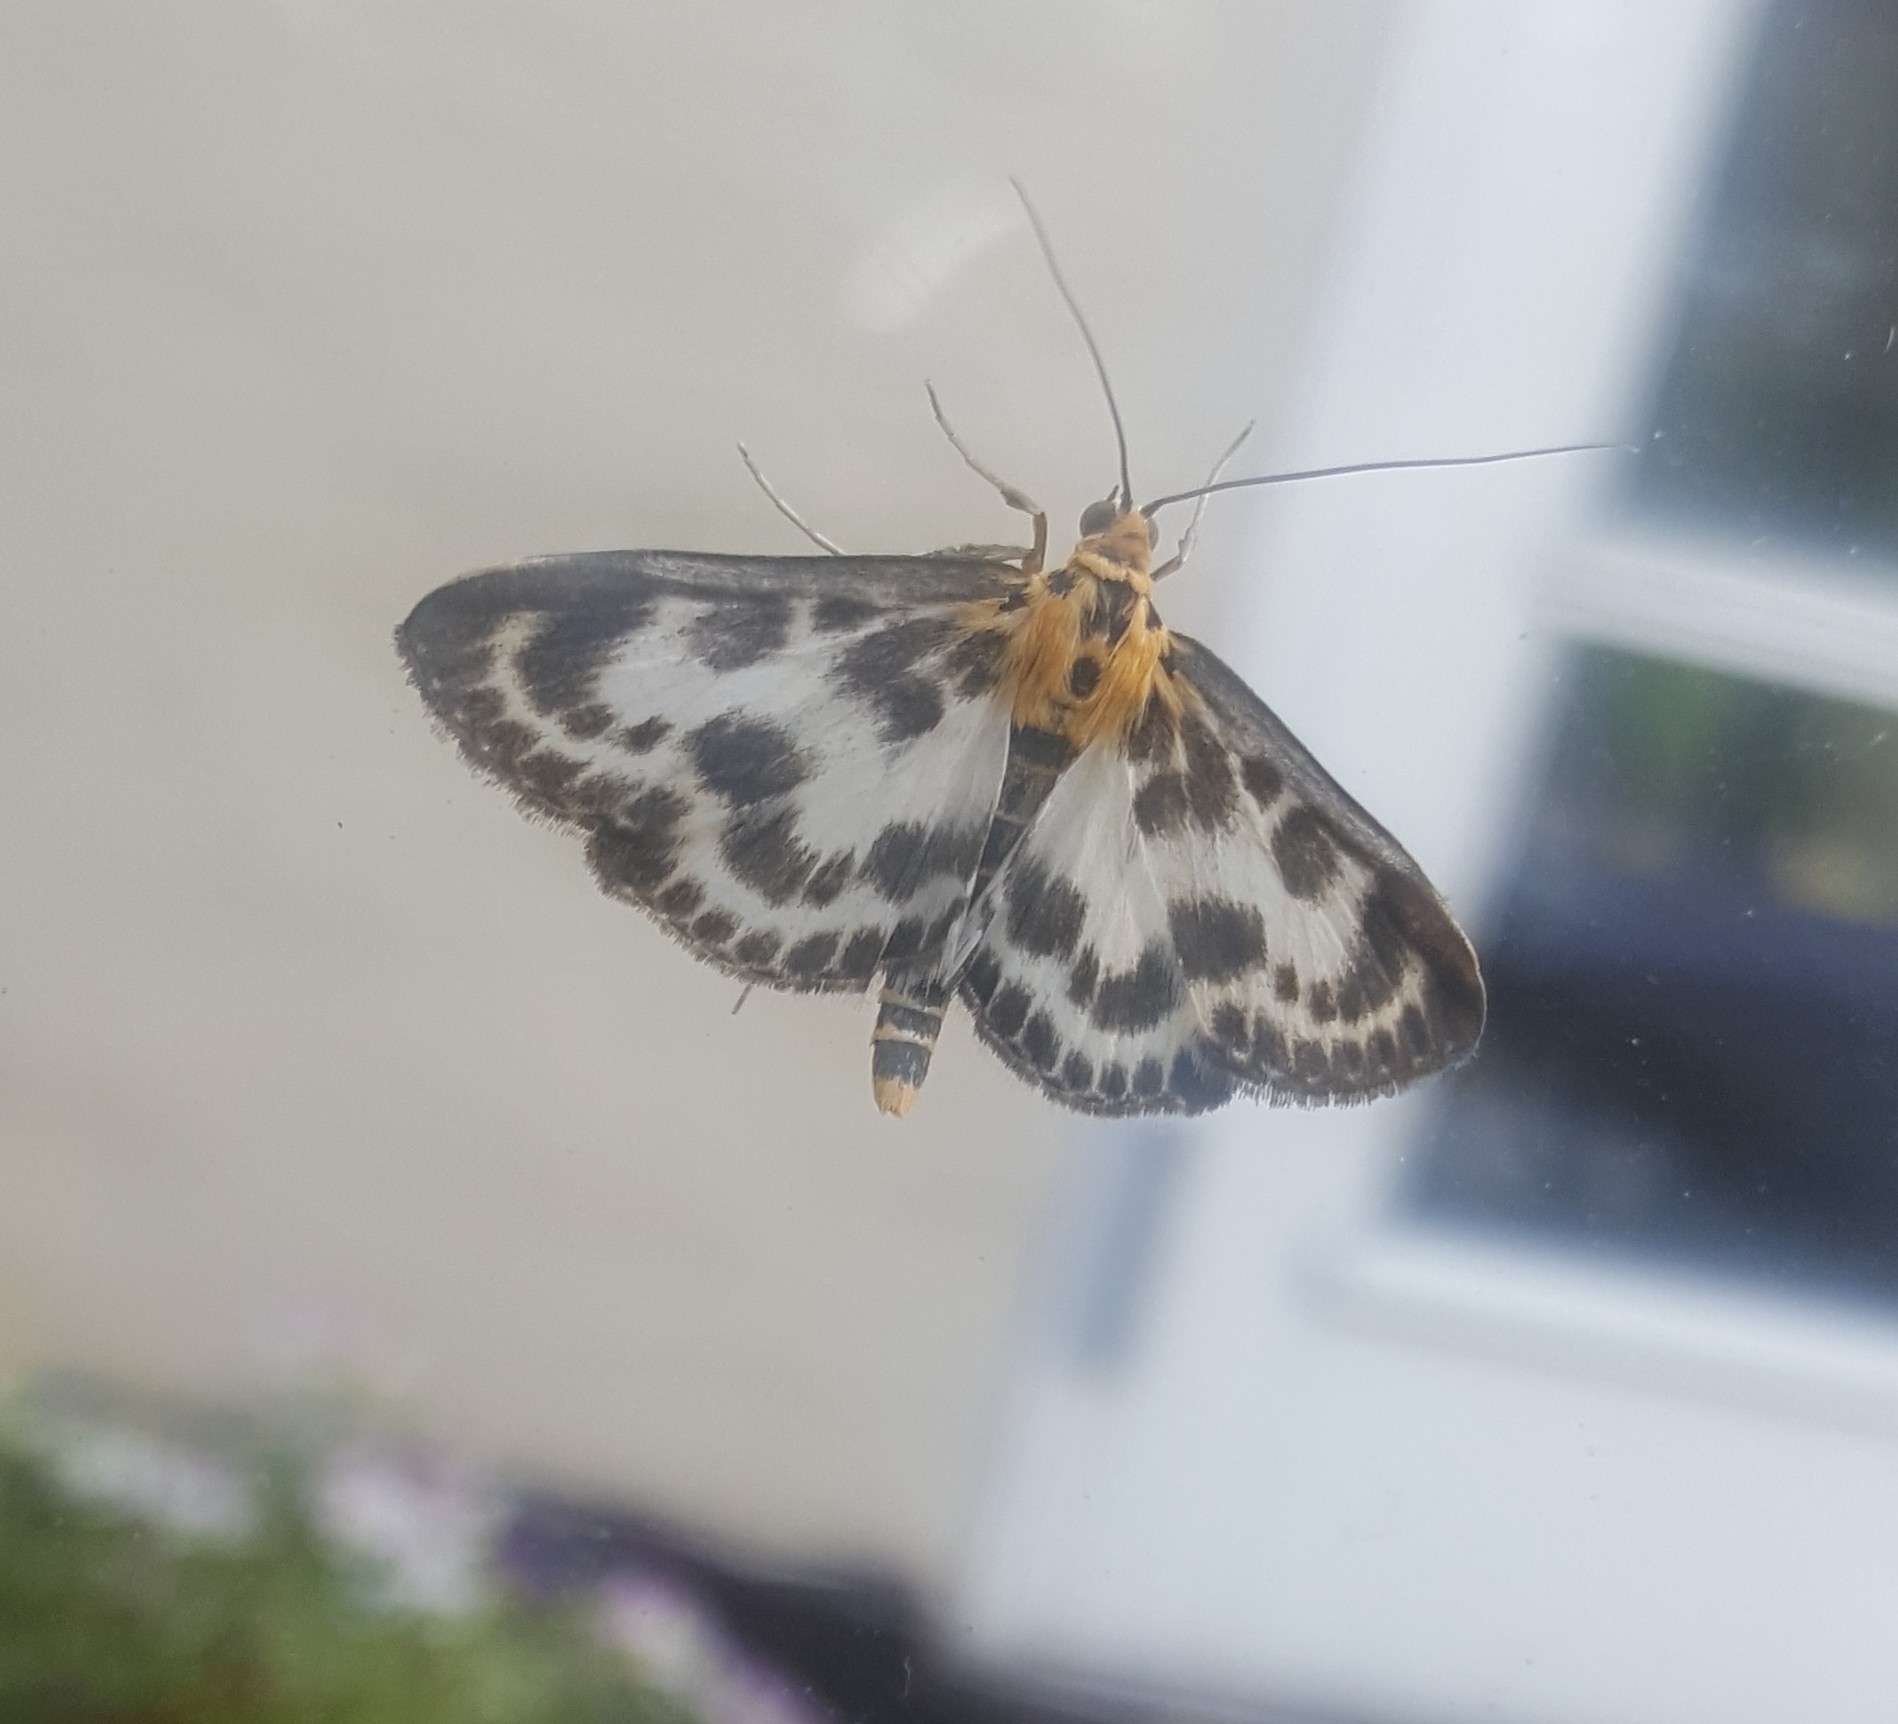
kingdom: Animalia
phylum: Arthropoda
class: Insecta
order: Lepidoptera
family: Crambidae
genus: Anania
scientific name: Anania hortulata
